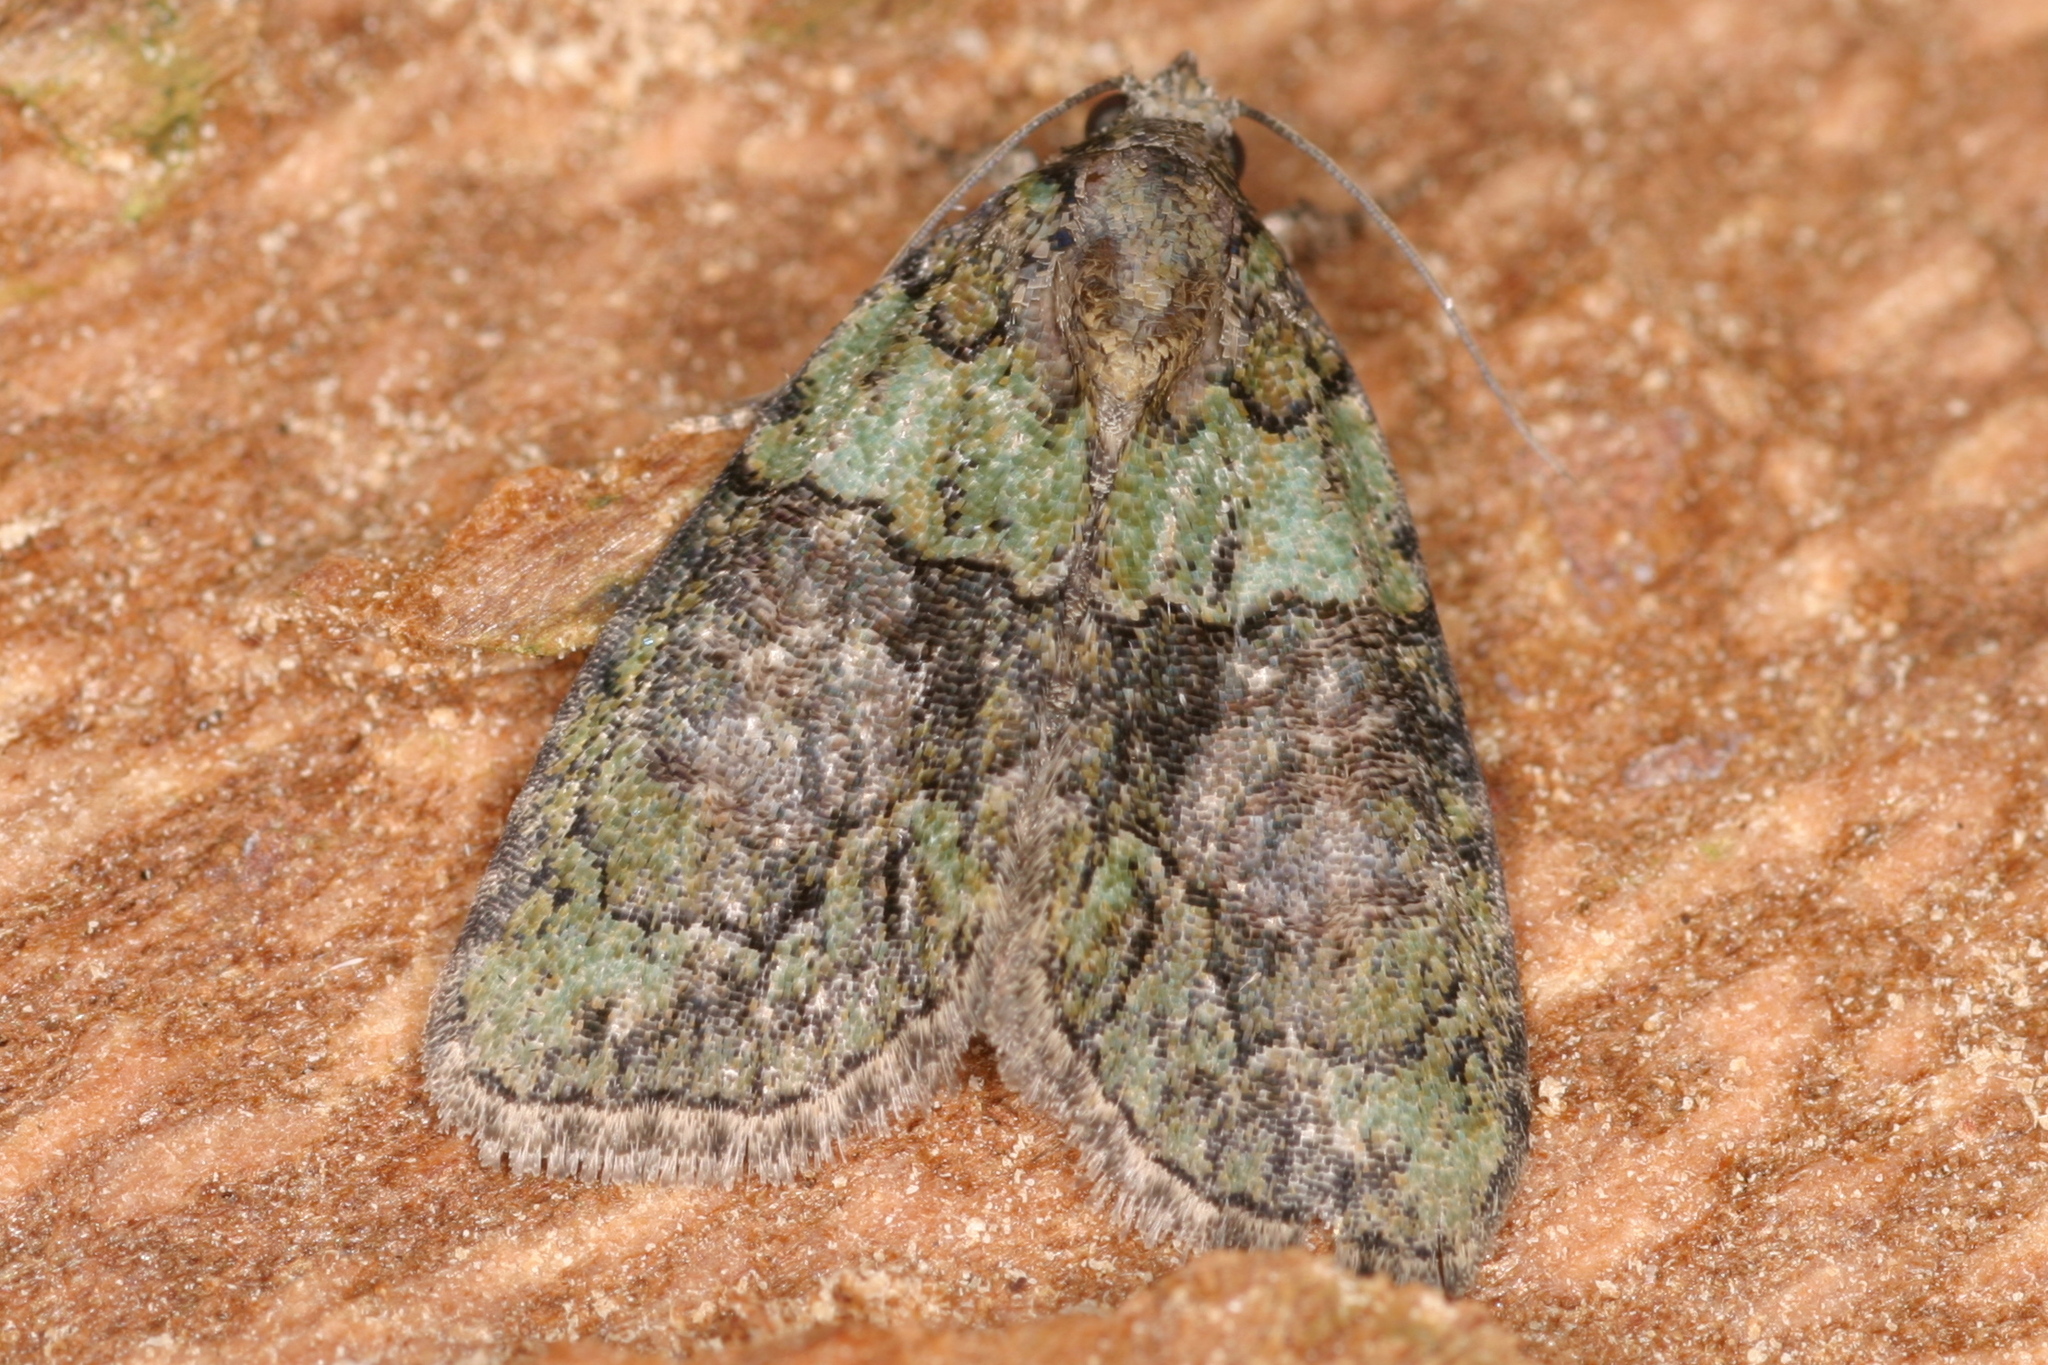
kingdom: Animalia
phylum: Arthropoda
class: Insecta
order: Lepidoptera
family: Noctuidae
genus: Cryphia
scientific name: Cryphia algae
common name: Tree-lichen beauty
